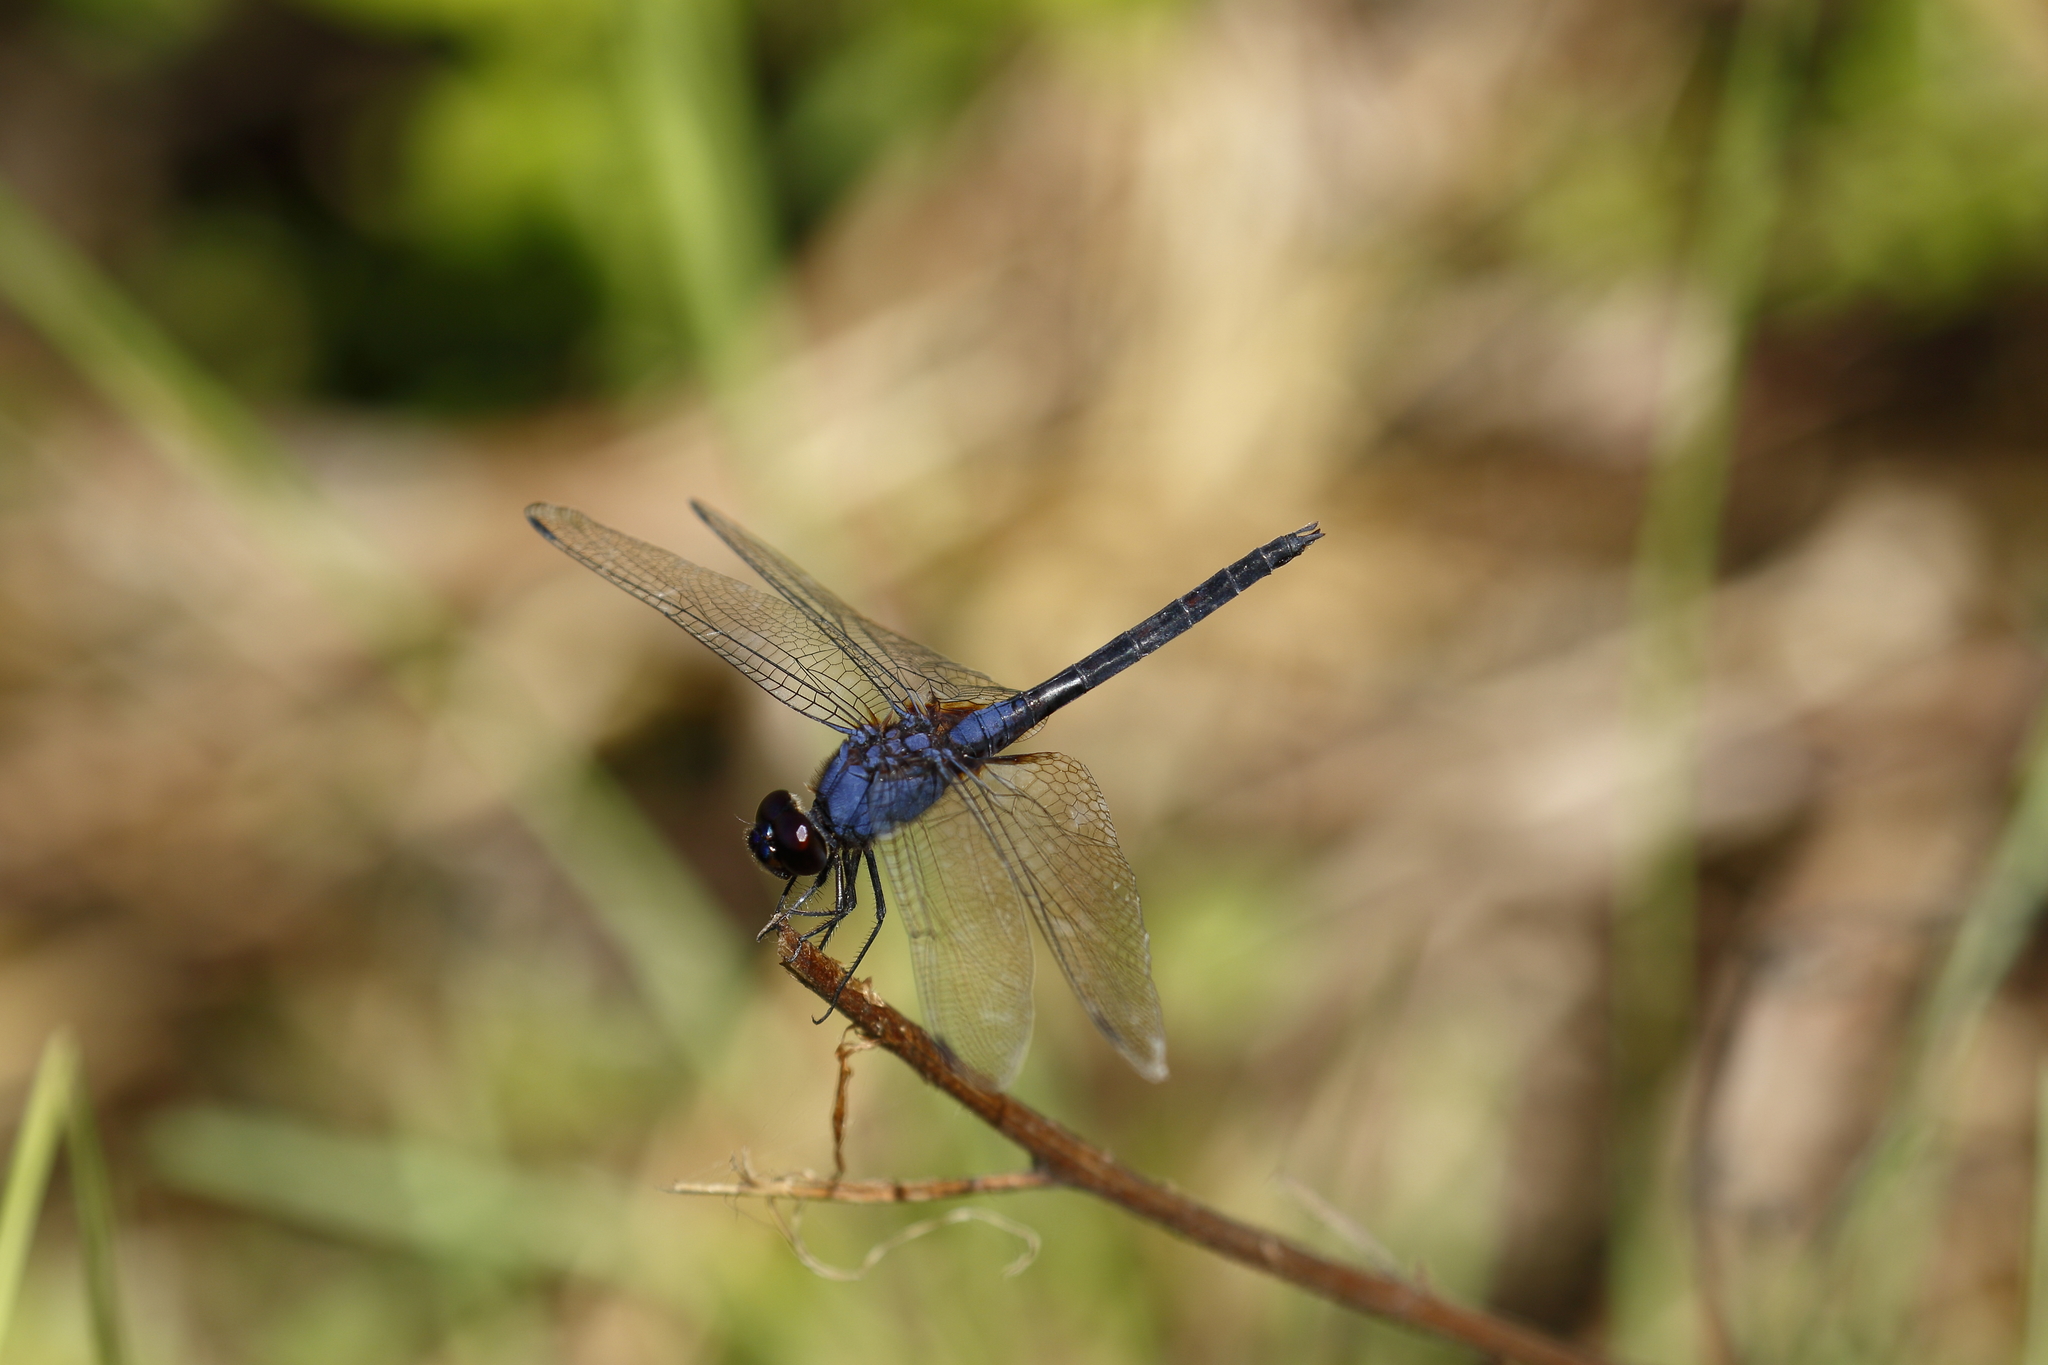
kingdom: Animalia
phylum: Arthropoda
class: Insecta
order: Odonata
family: Libellulidae
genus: Trithemis
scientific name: Trithemis festiva
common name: Indigo dropwing
